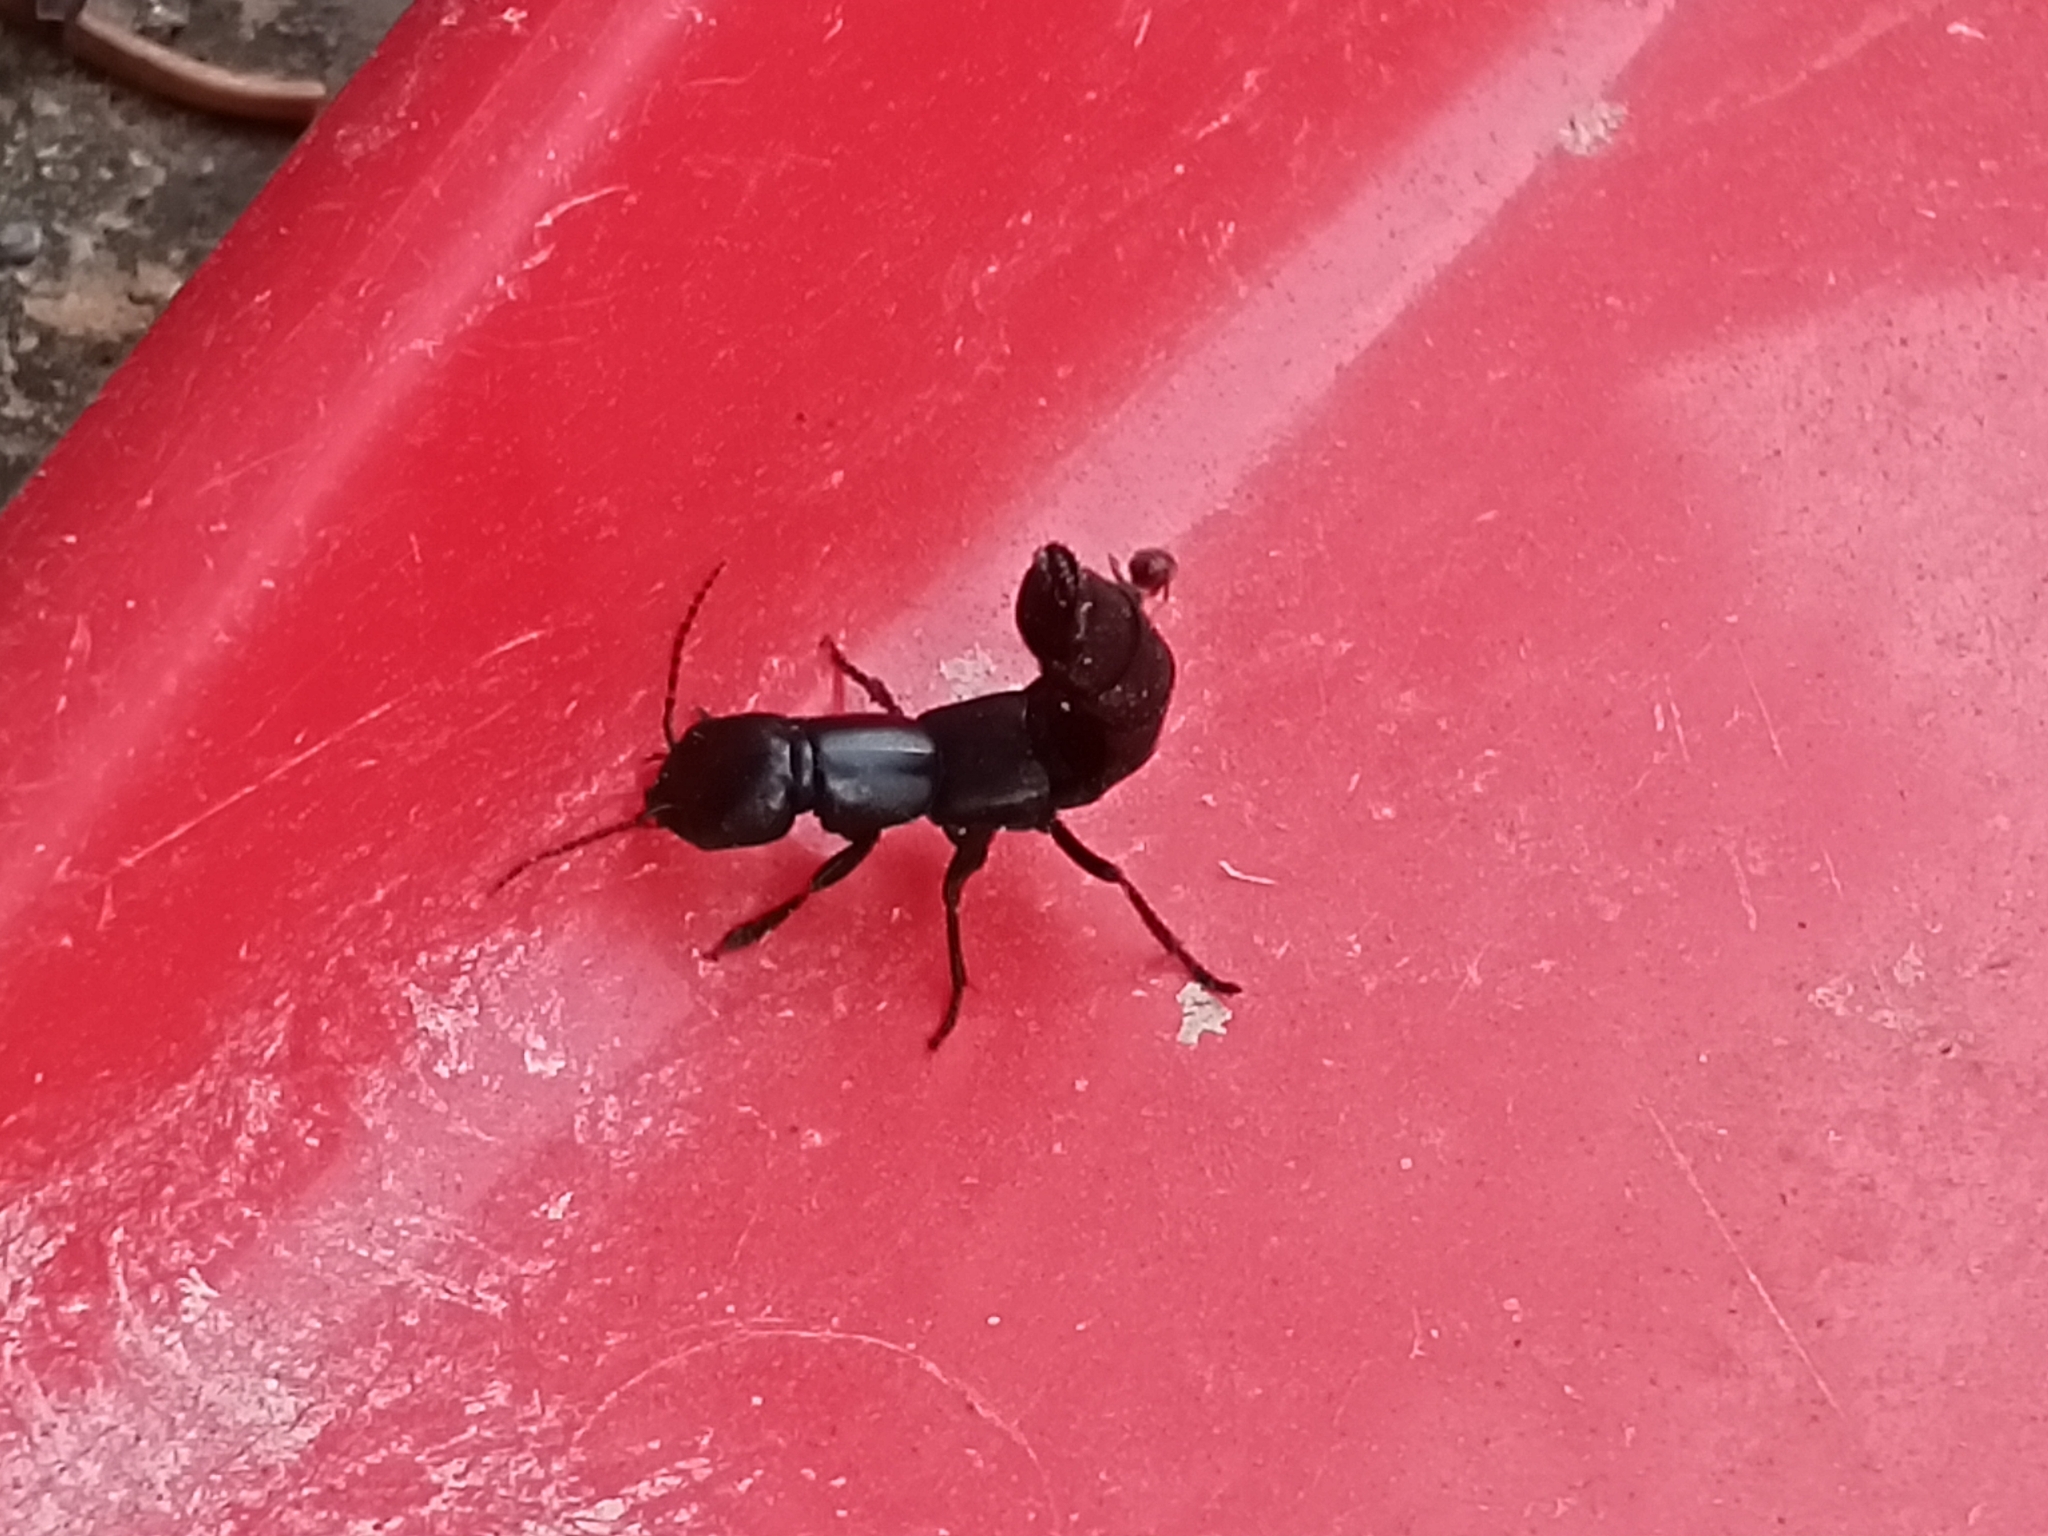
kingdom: Animalia
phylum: Arthropoda
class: Insecta
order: Coleoptera
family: Staphylinidae
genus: Ocypus
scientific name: Ocypus nitens
